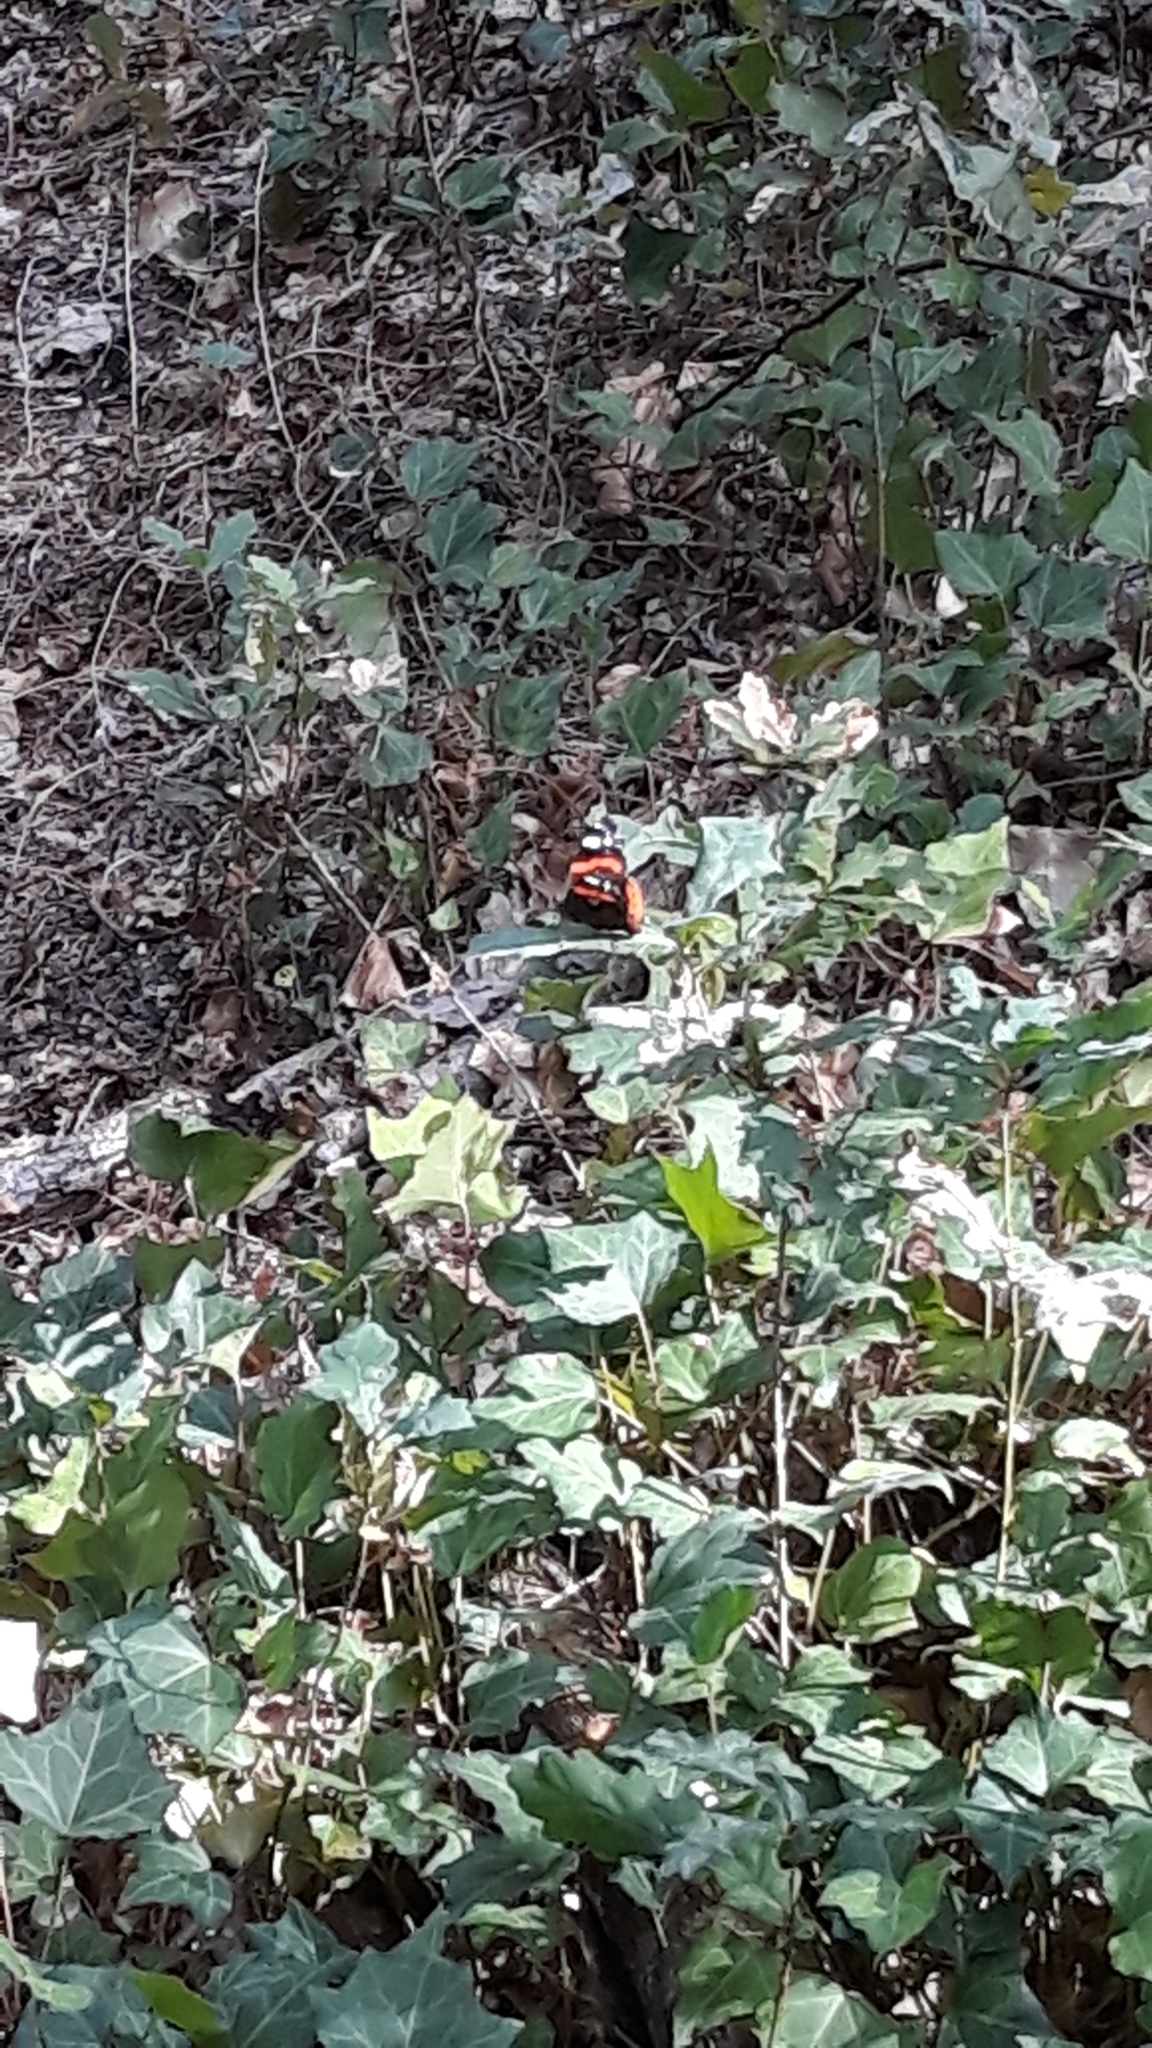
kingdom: Animalia
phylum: Arthropoda
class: Insecta
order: Lepidoptera
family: Nymphalidae
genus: Vanessa
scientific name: Vanessa atalanta
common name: Red admiral
